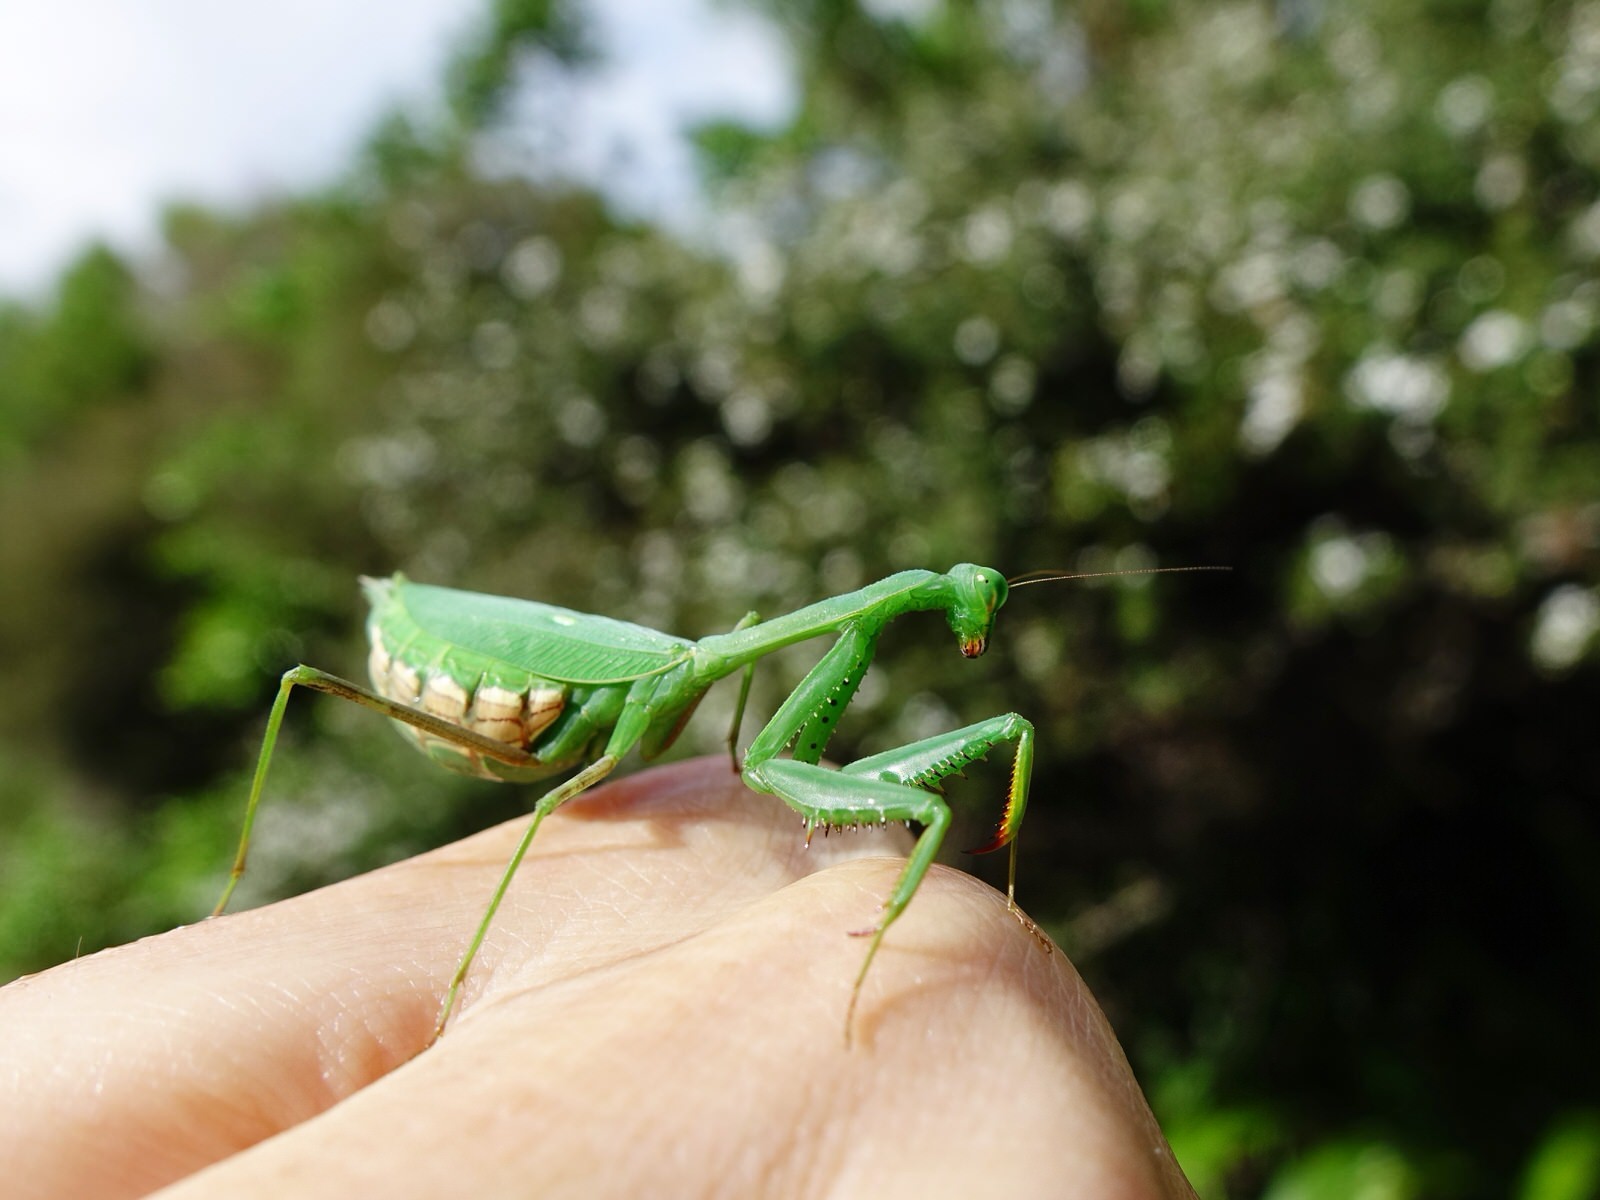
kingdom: Animalia
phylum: Arthropoda
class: Insecta
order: Mantodea
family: Miomantidae
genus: Miomantis
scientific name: Miomantis caffra
